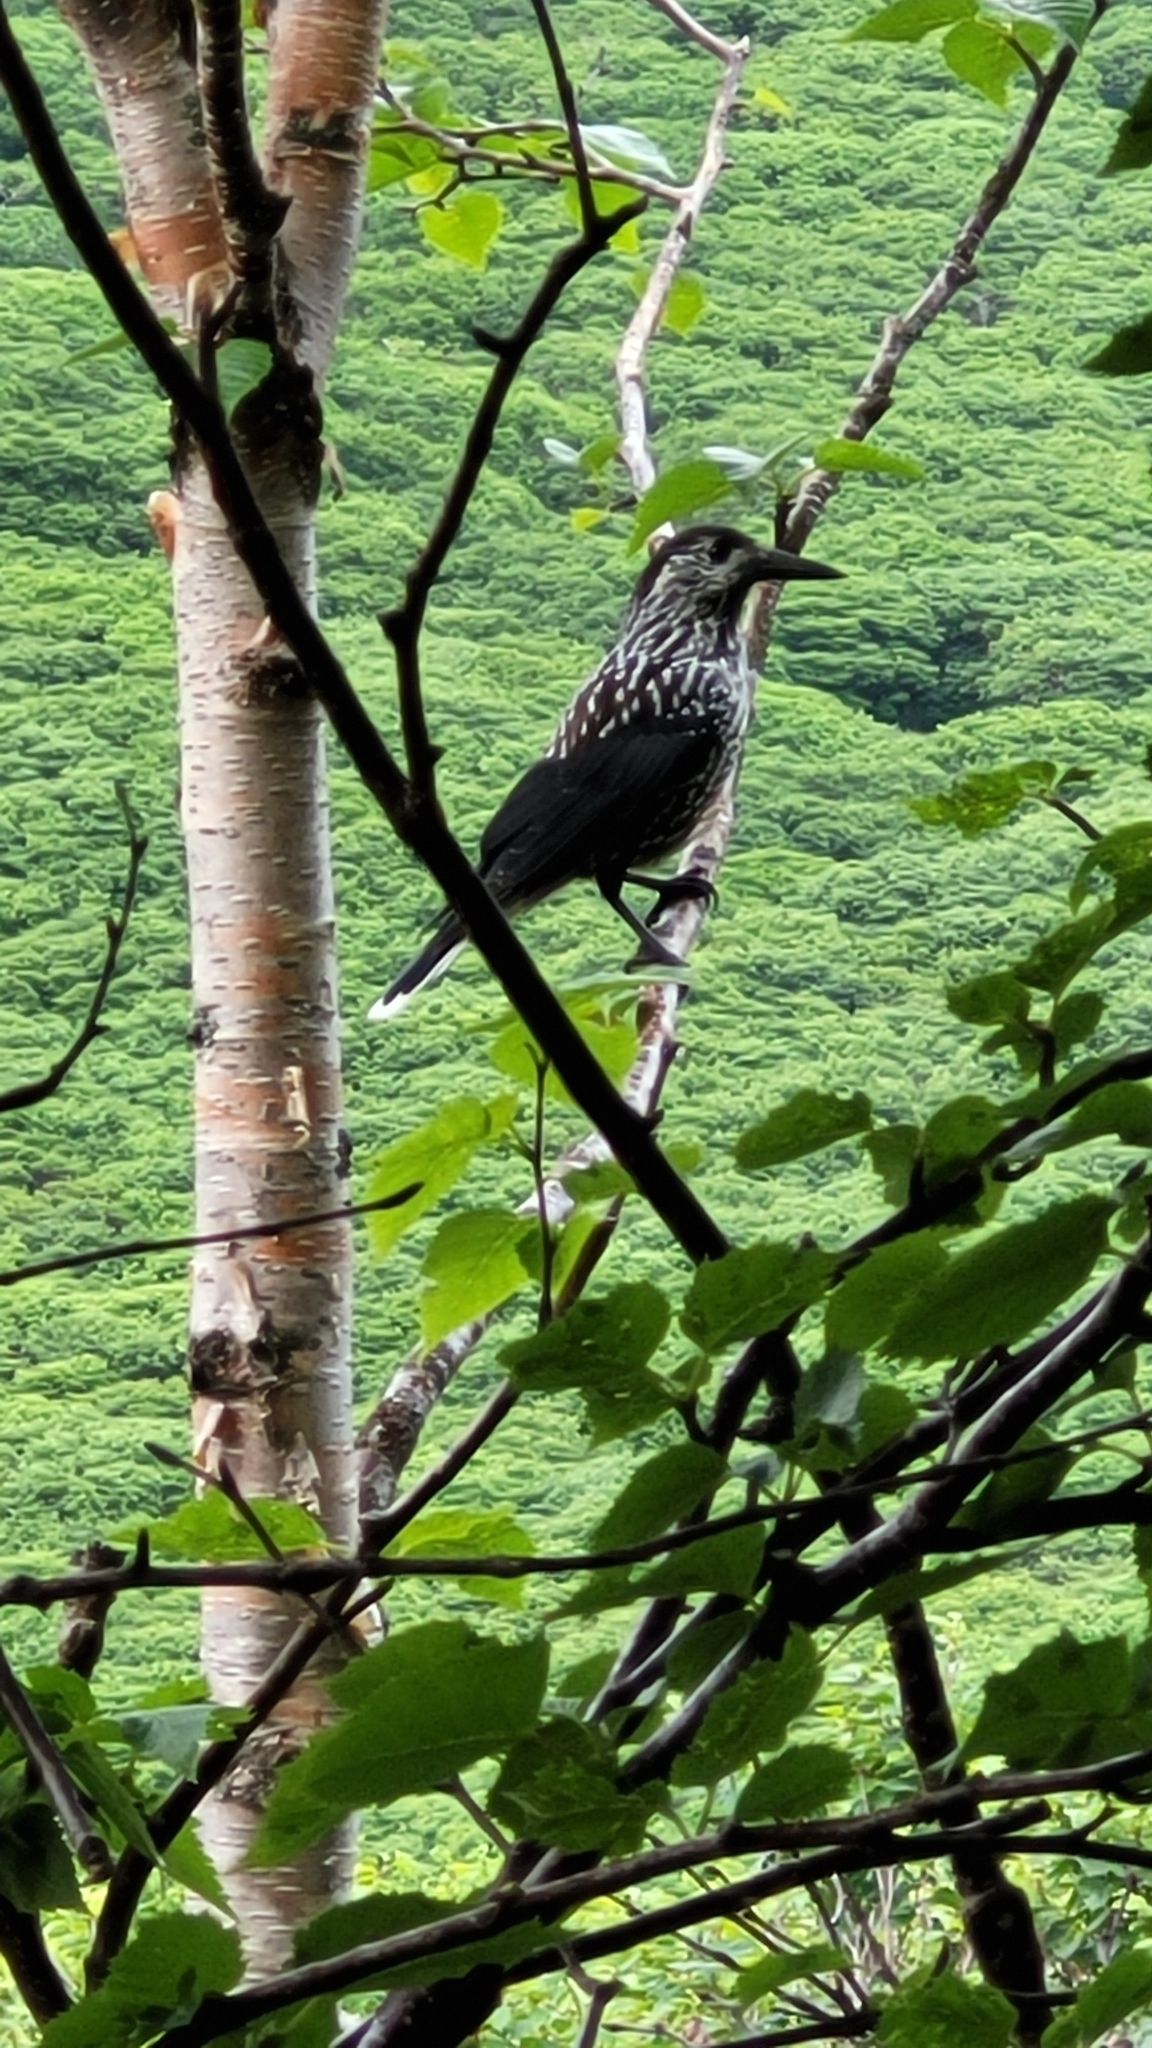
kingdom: Animalia
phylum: Chordata
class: Aves
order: Passeriformes
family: Corvidae
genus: Nucifraga
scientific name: Nucifraga caryocatactes
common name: Spotted nutcracker
